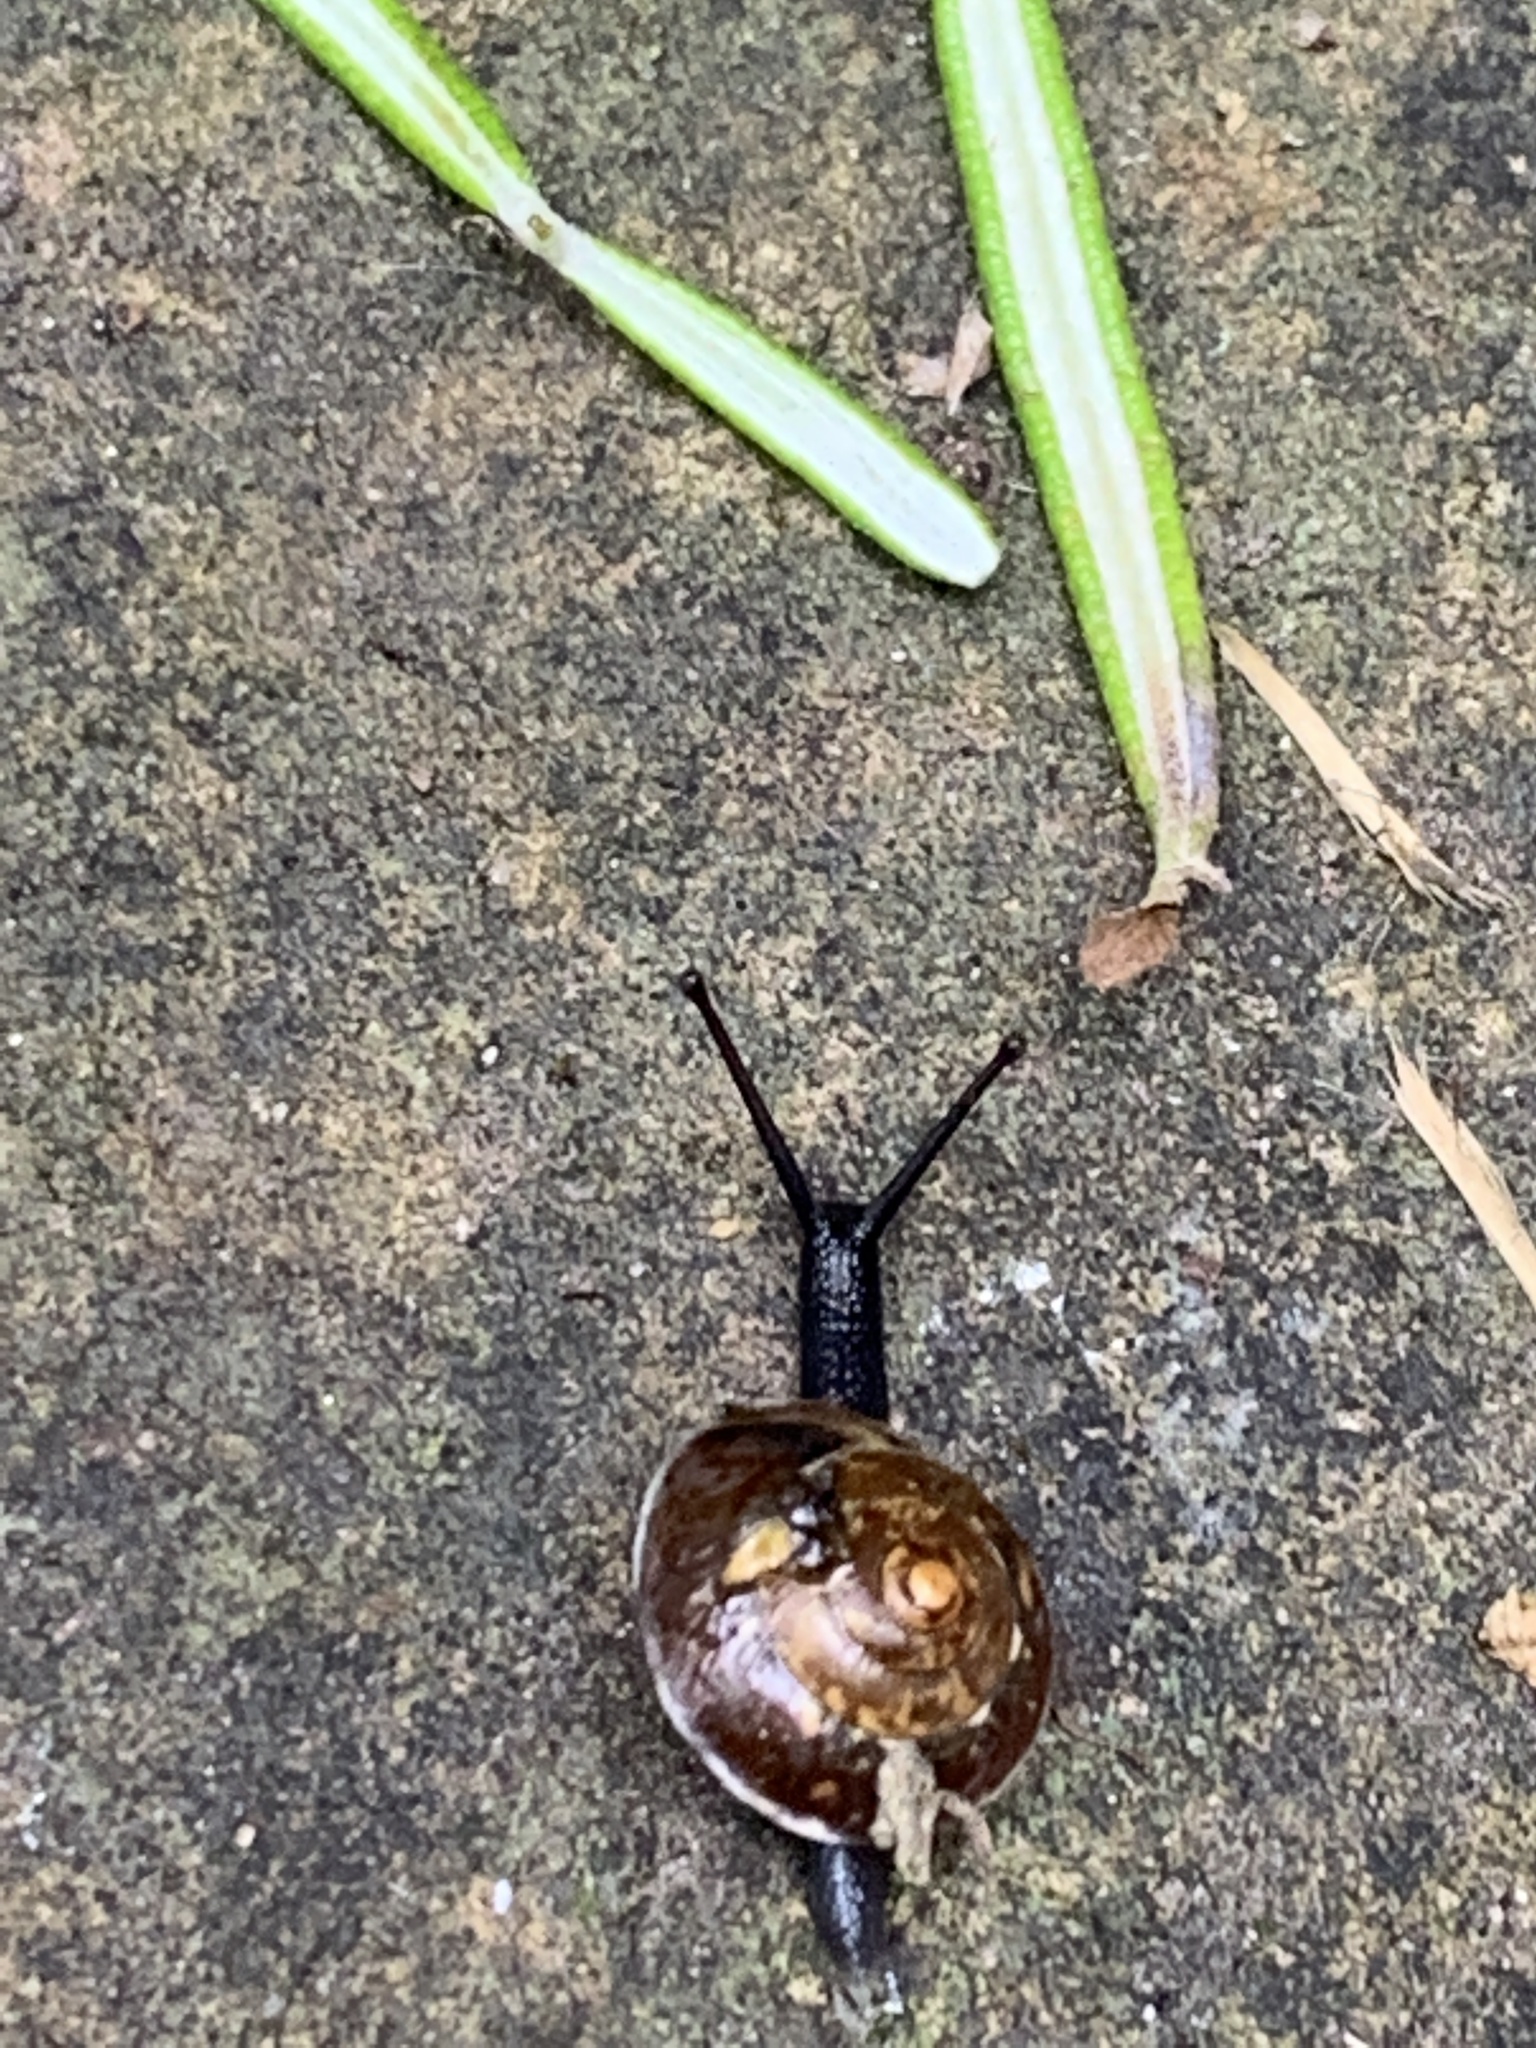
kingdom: Animalia
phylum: Mollusca
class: Gastropoda
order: Stylommatophora
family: Hygromiidae
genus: Hygromia
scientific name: Hygromia cinctella
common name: Girdled snail
